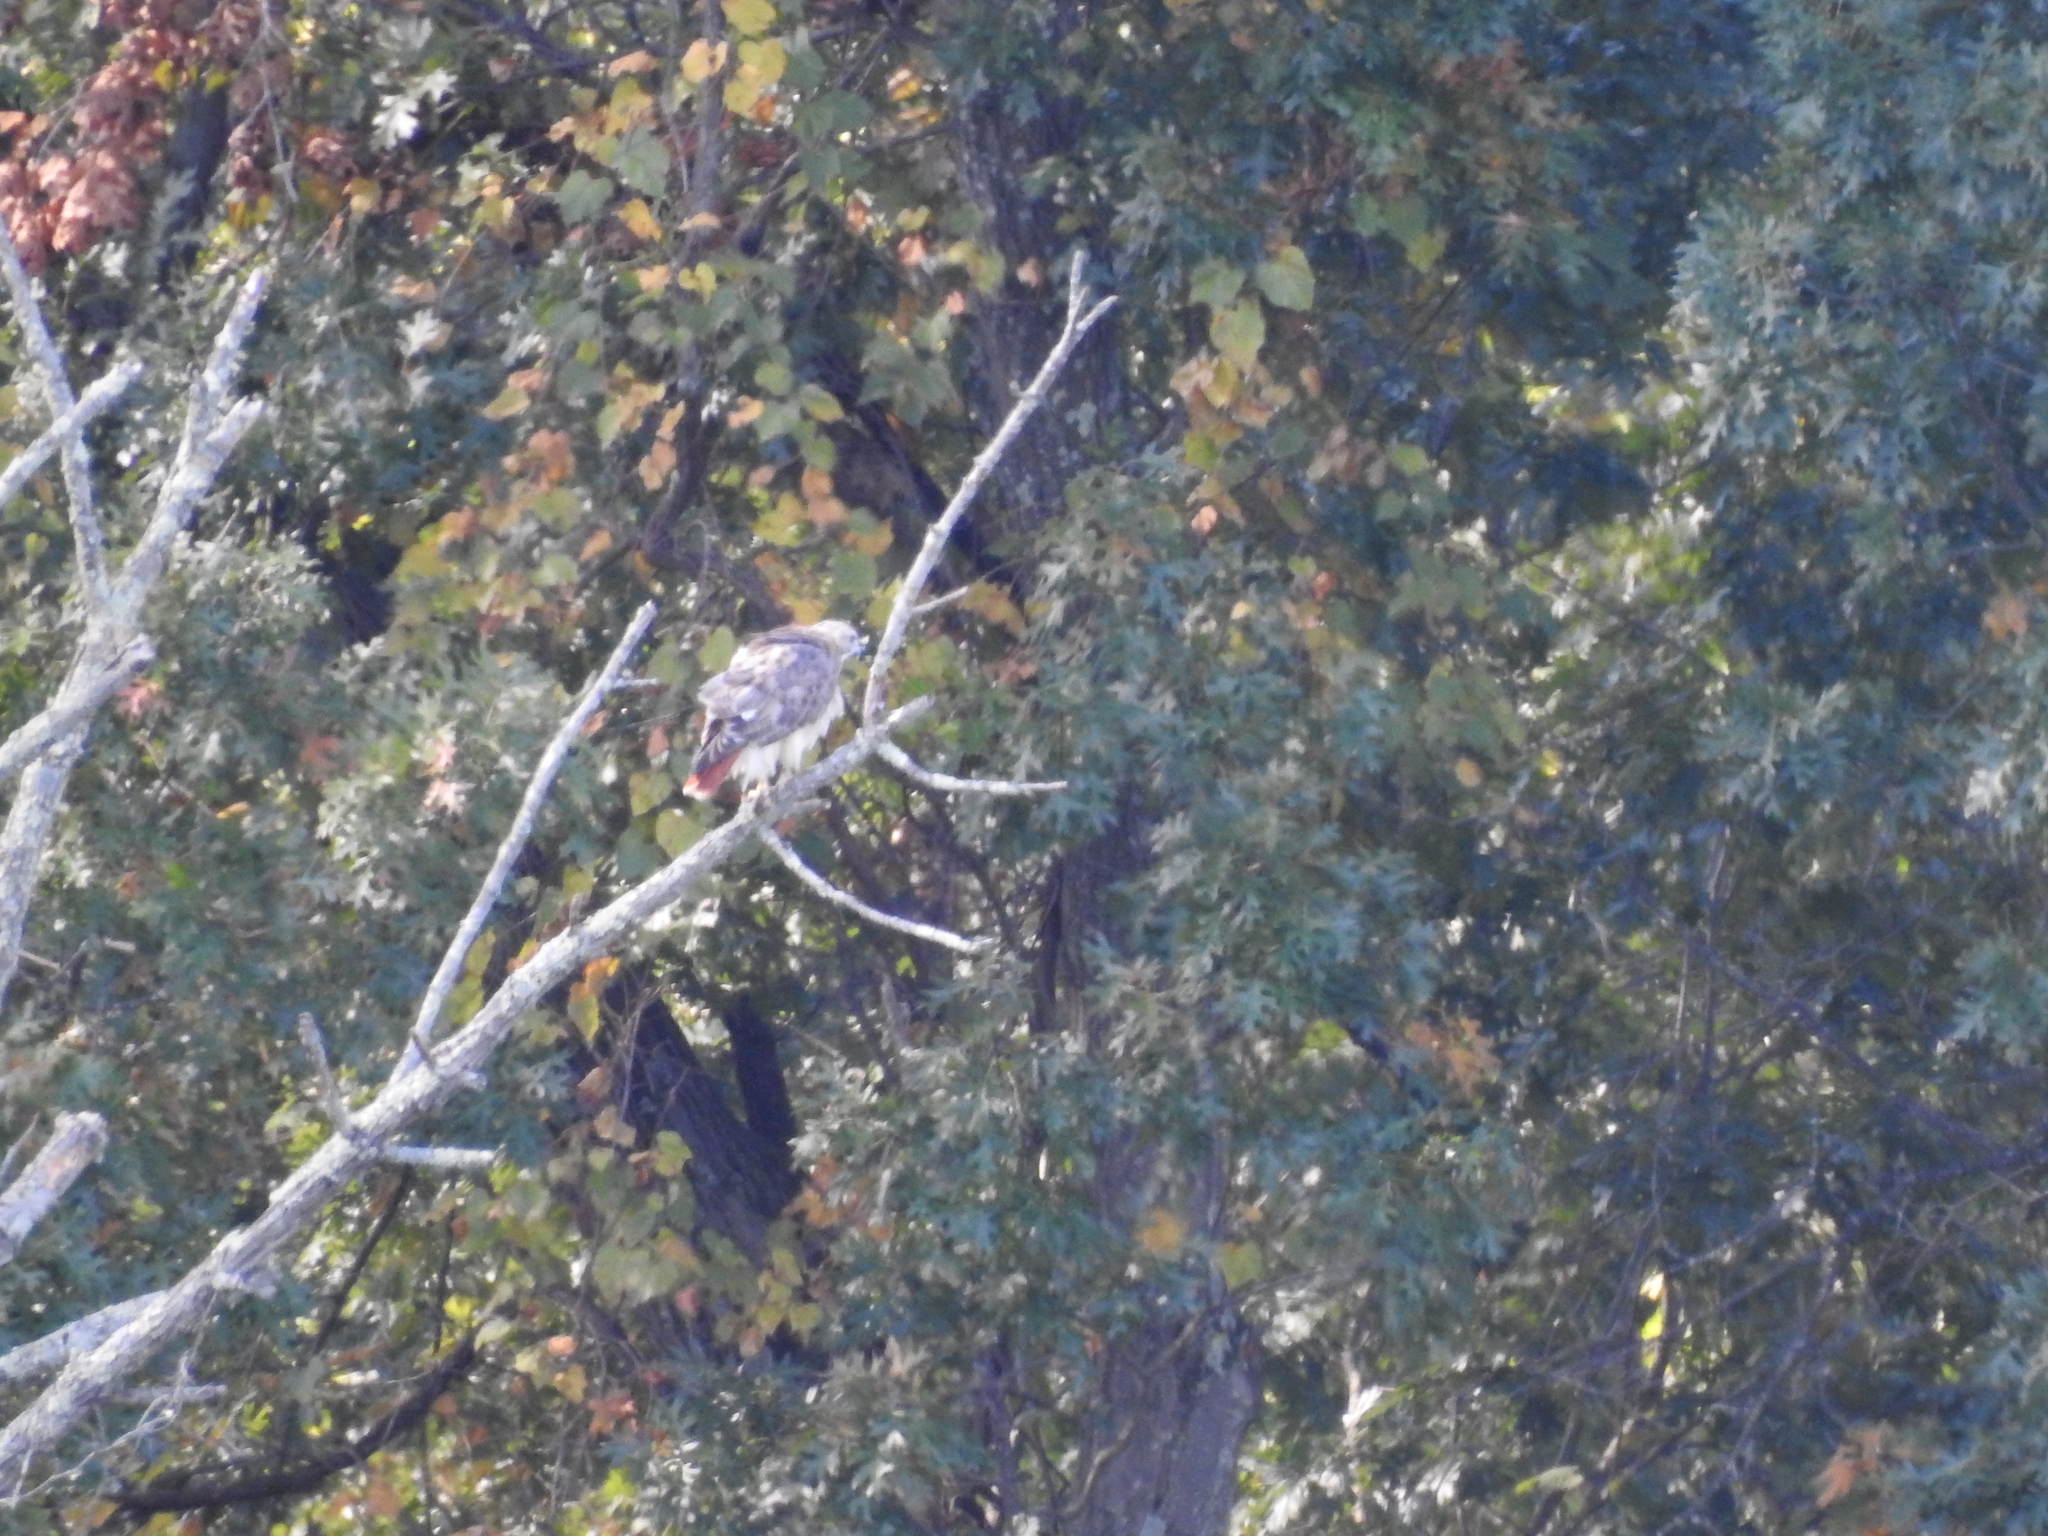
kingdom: Animalia
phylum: Chordata
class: Aves
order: Accipitriformes
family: Accipitridae
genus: Buteo
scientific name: Buteo jamaicensis
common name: Red-tailed hawk
